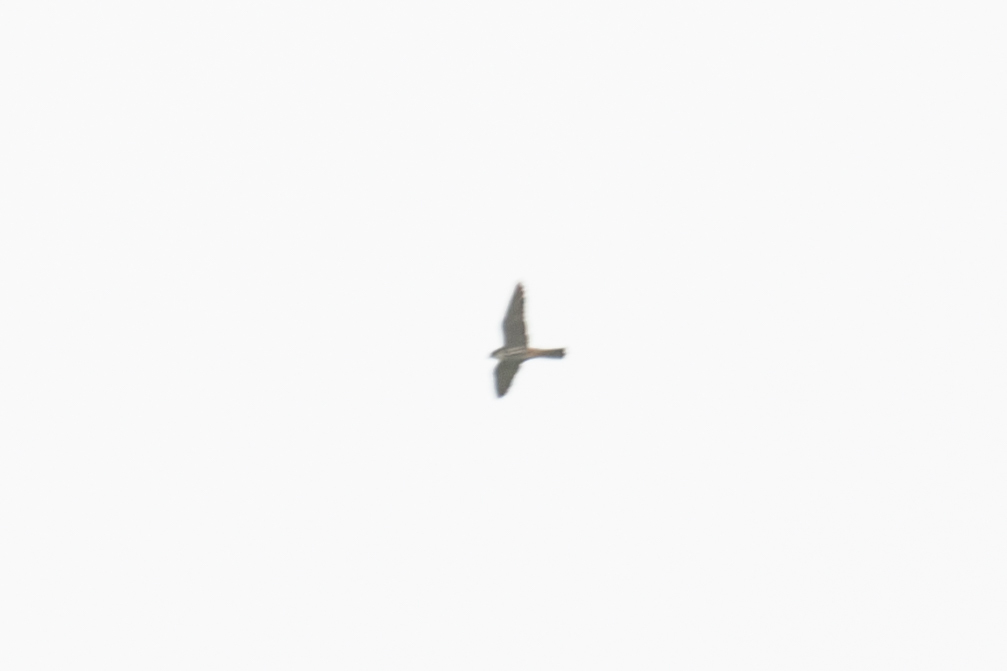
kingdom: Animalia
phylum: Chordata
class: Aves
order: Falconiformes
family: Falconidae
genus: Falco
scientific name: Falco subbuteo
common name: Eurasian hobby
